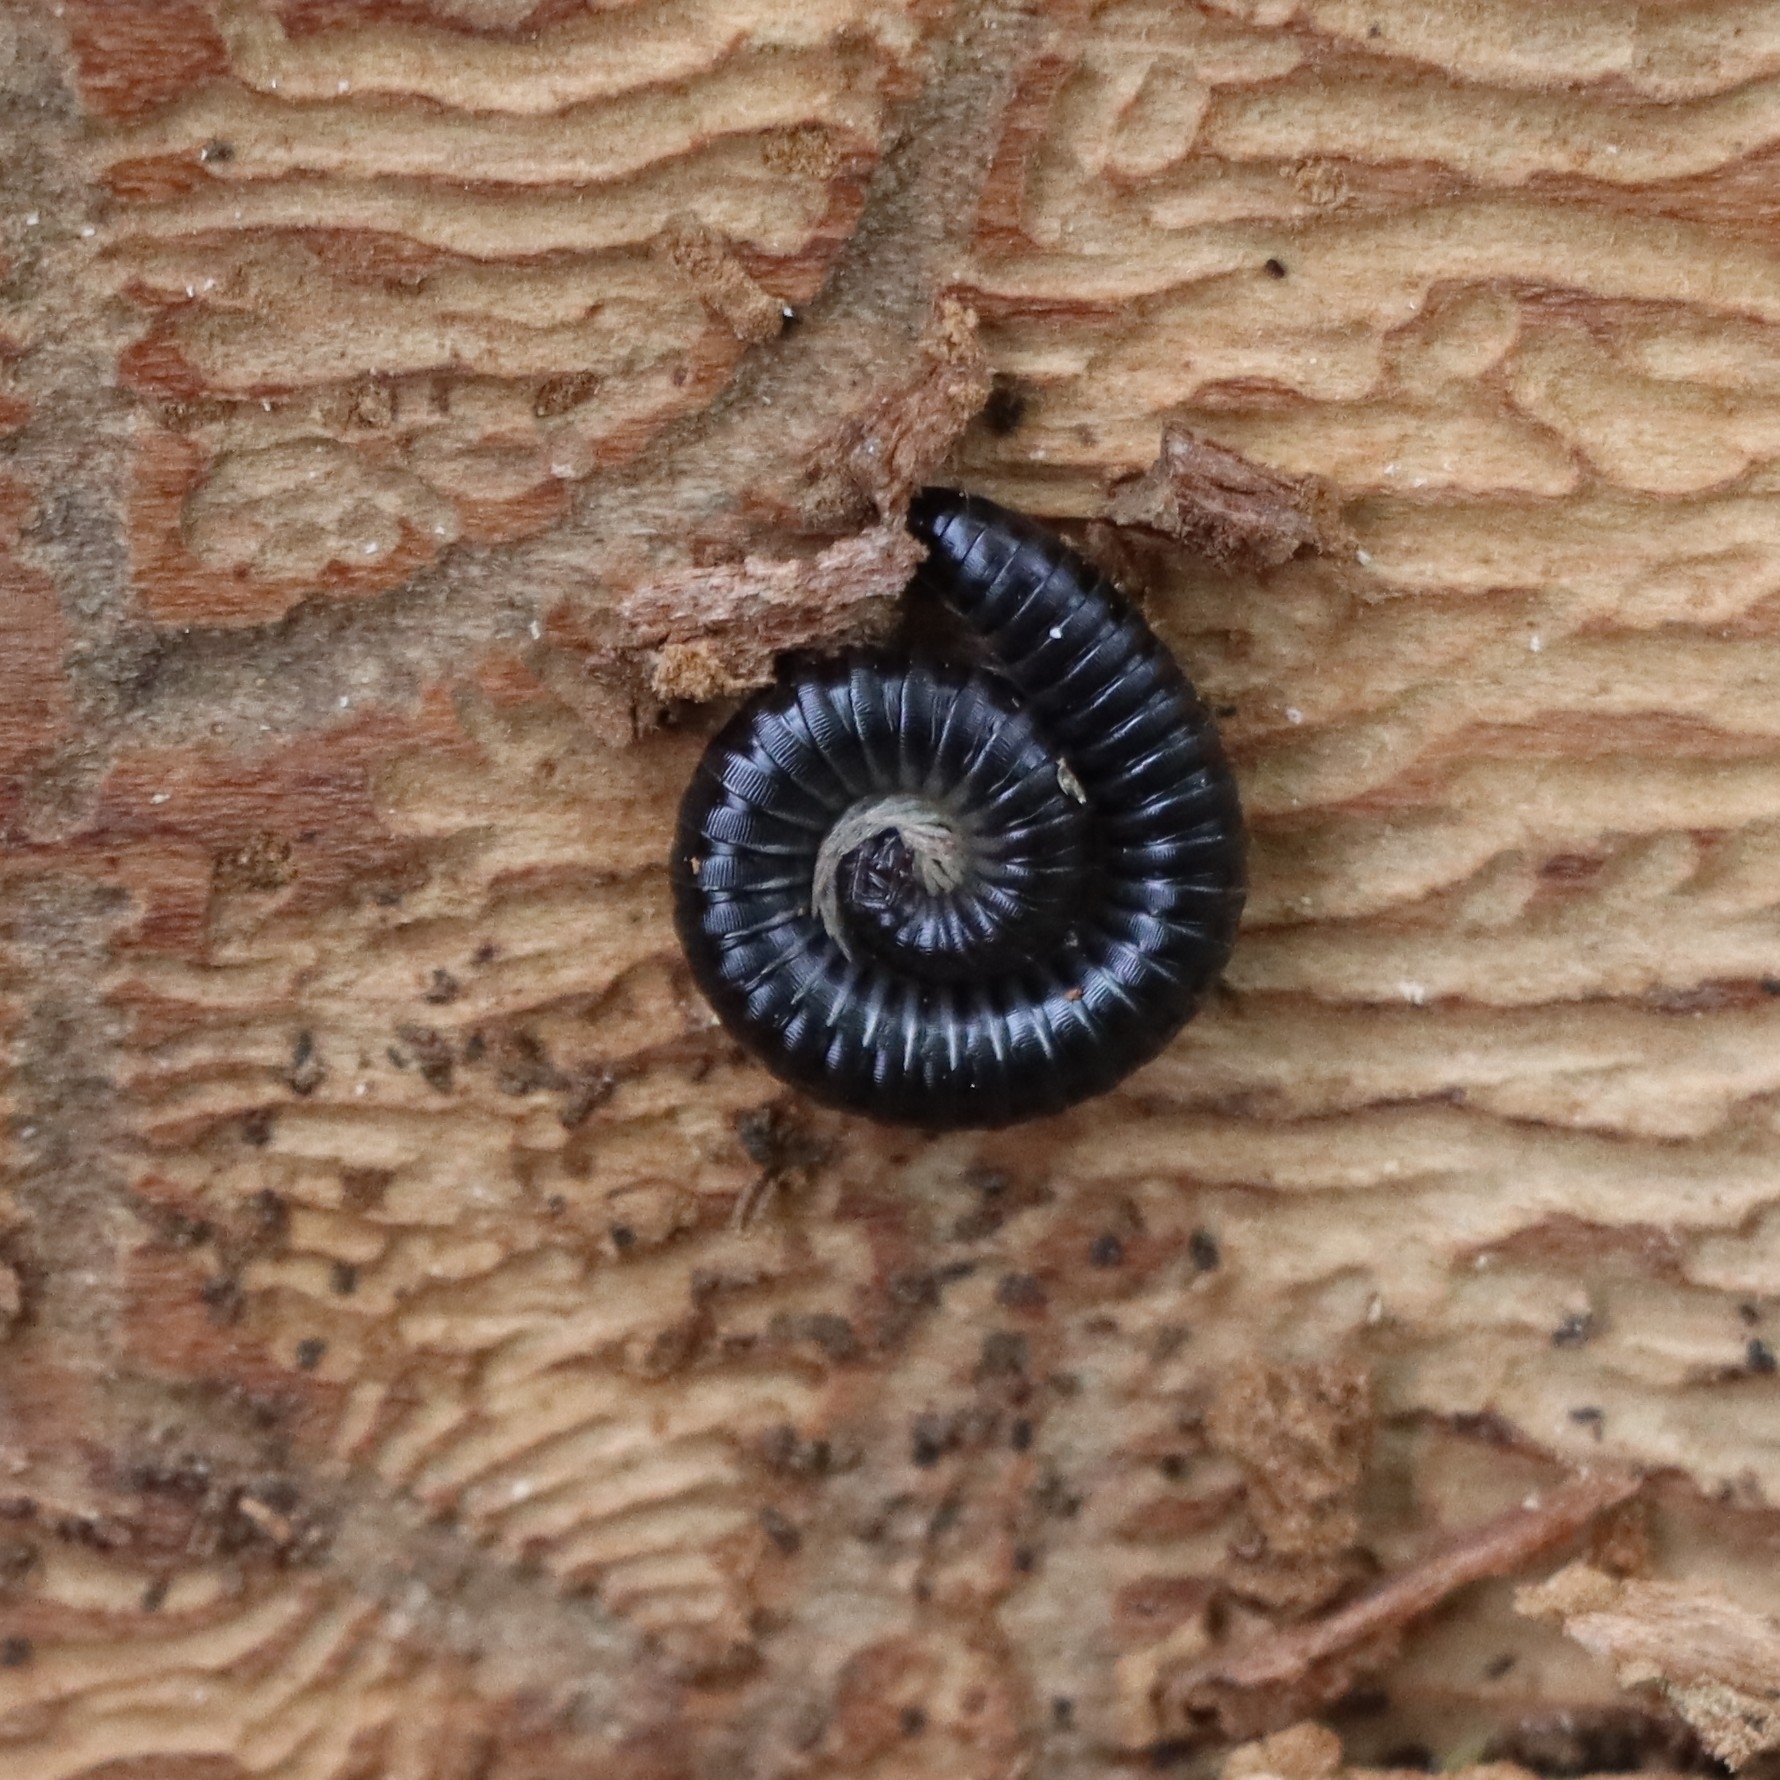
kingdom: Animalia
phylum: Arthropoda
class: Diplopoda
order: Julida
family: Julidae
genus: Tachypodoiulus
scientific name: Tachypodoiulus niger
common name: White-legged snake millipede
